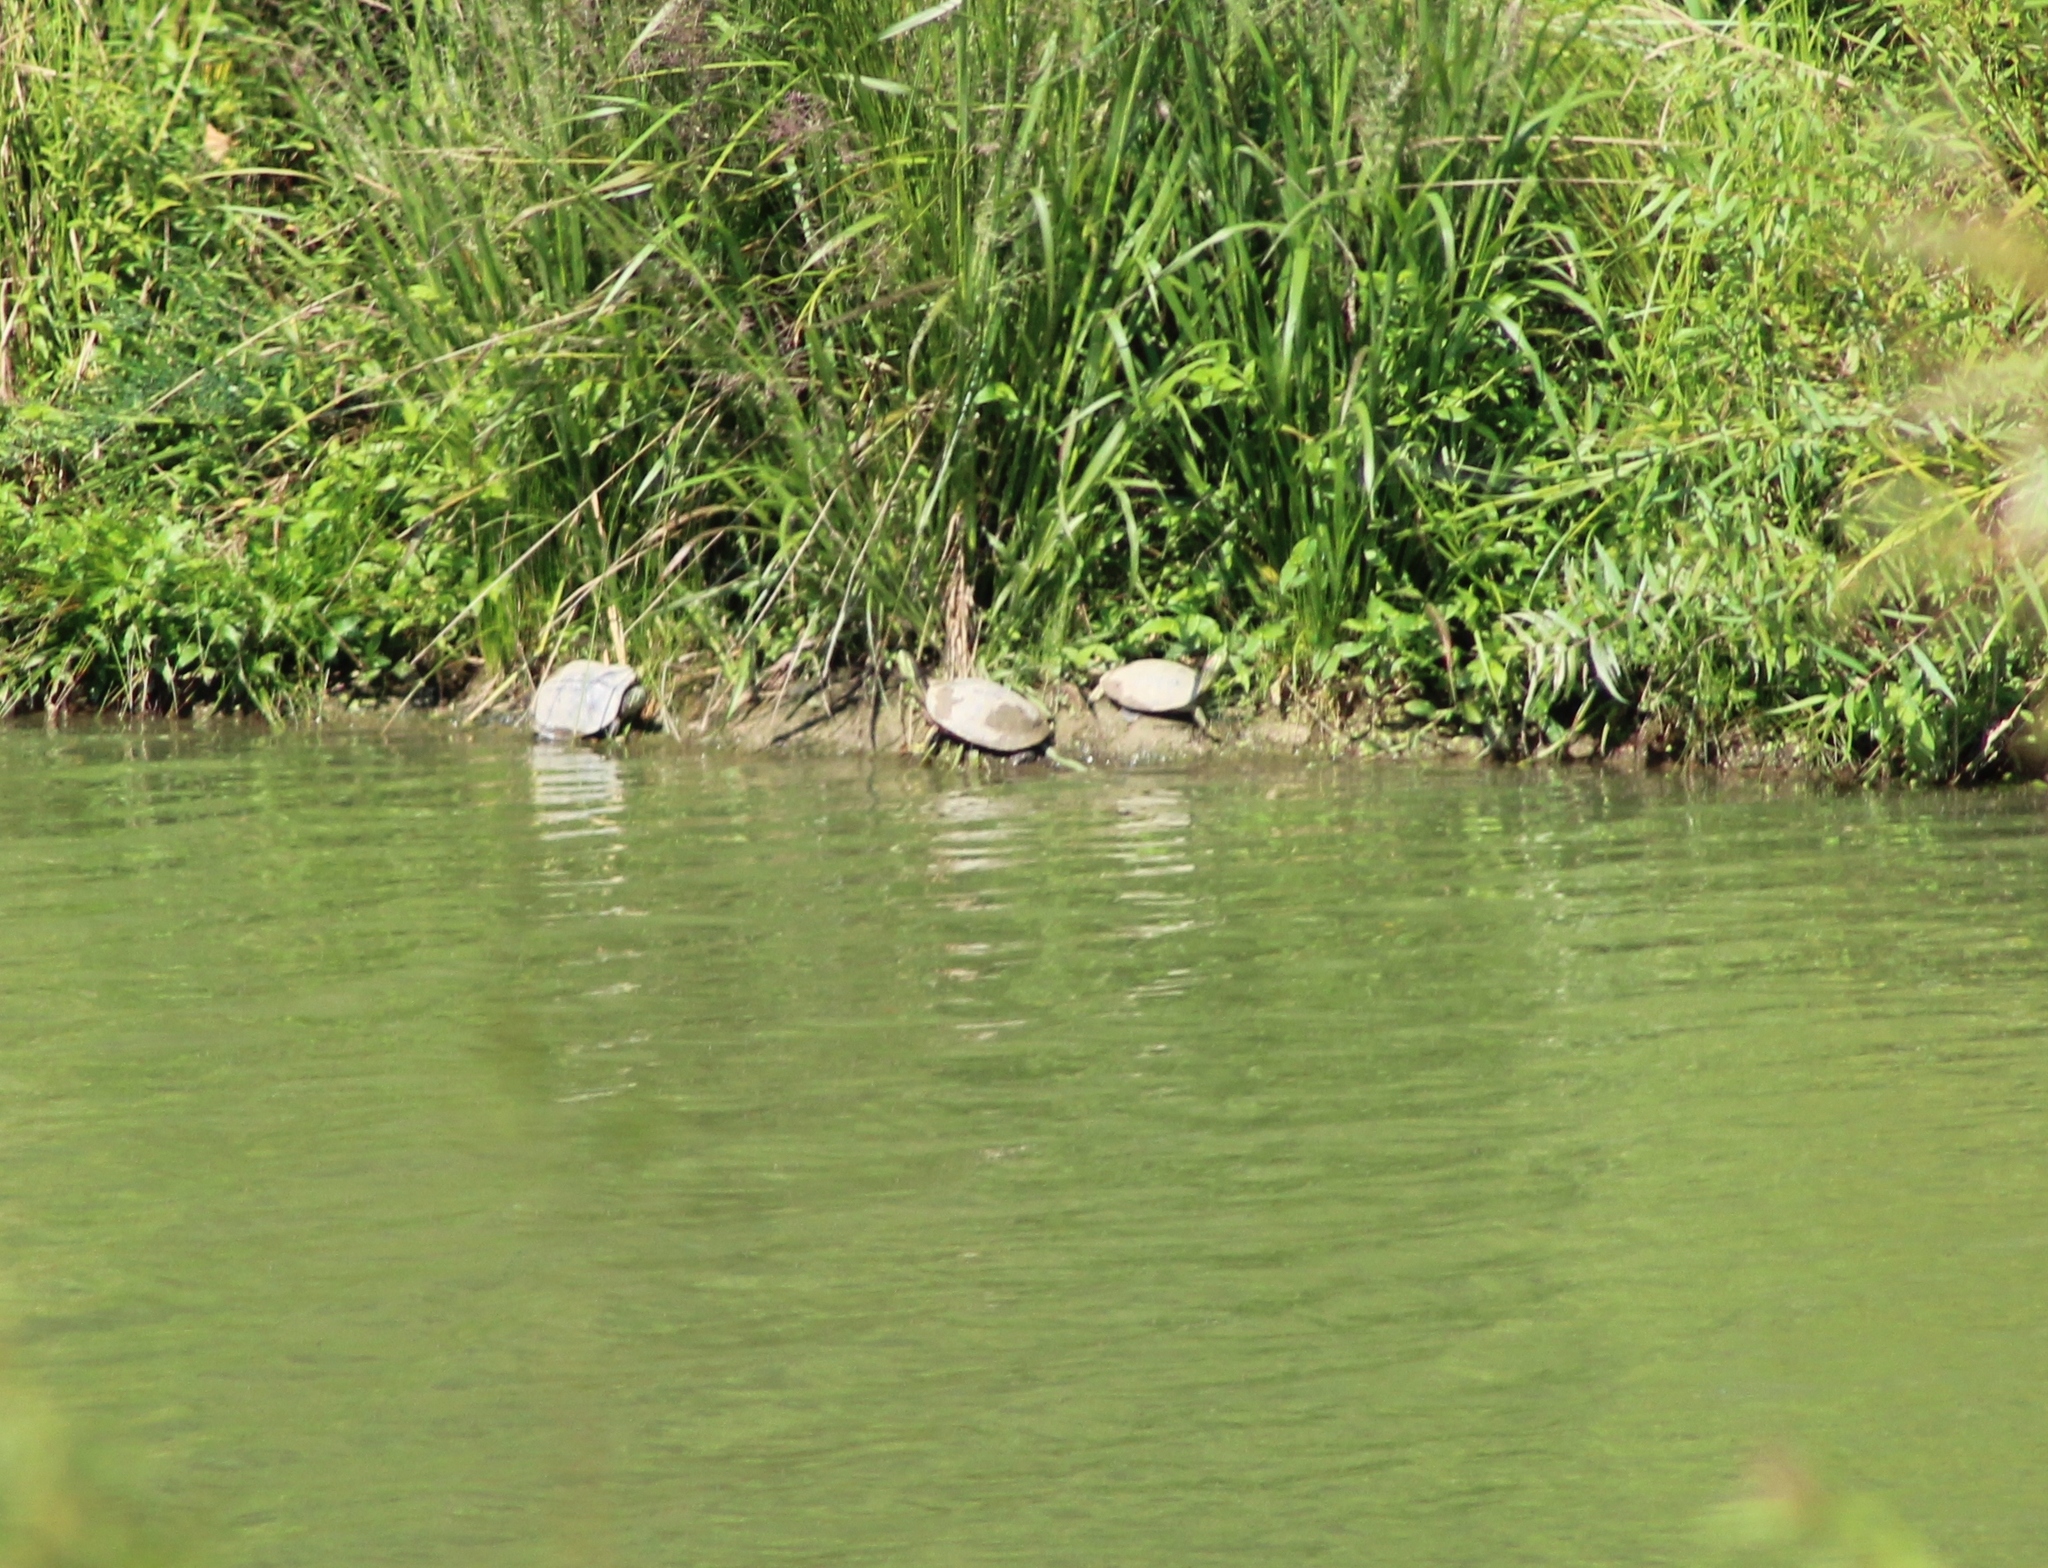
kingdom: Animalia
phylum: Chordata
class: Testudines
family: Emydidae
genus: Trachemys
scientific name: Trachemys scripta
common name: Slider
